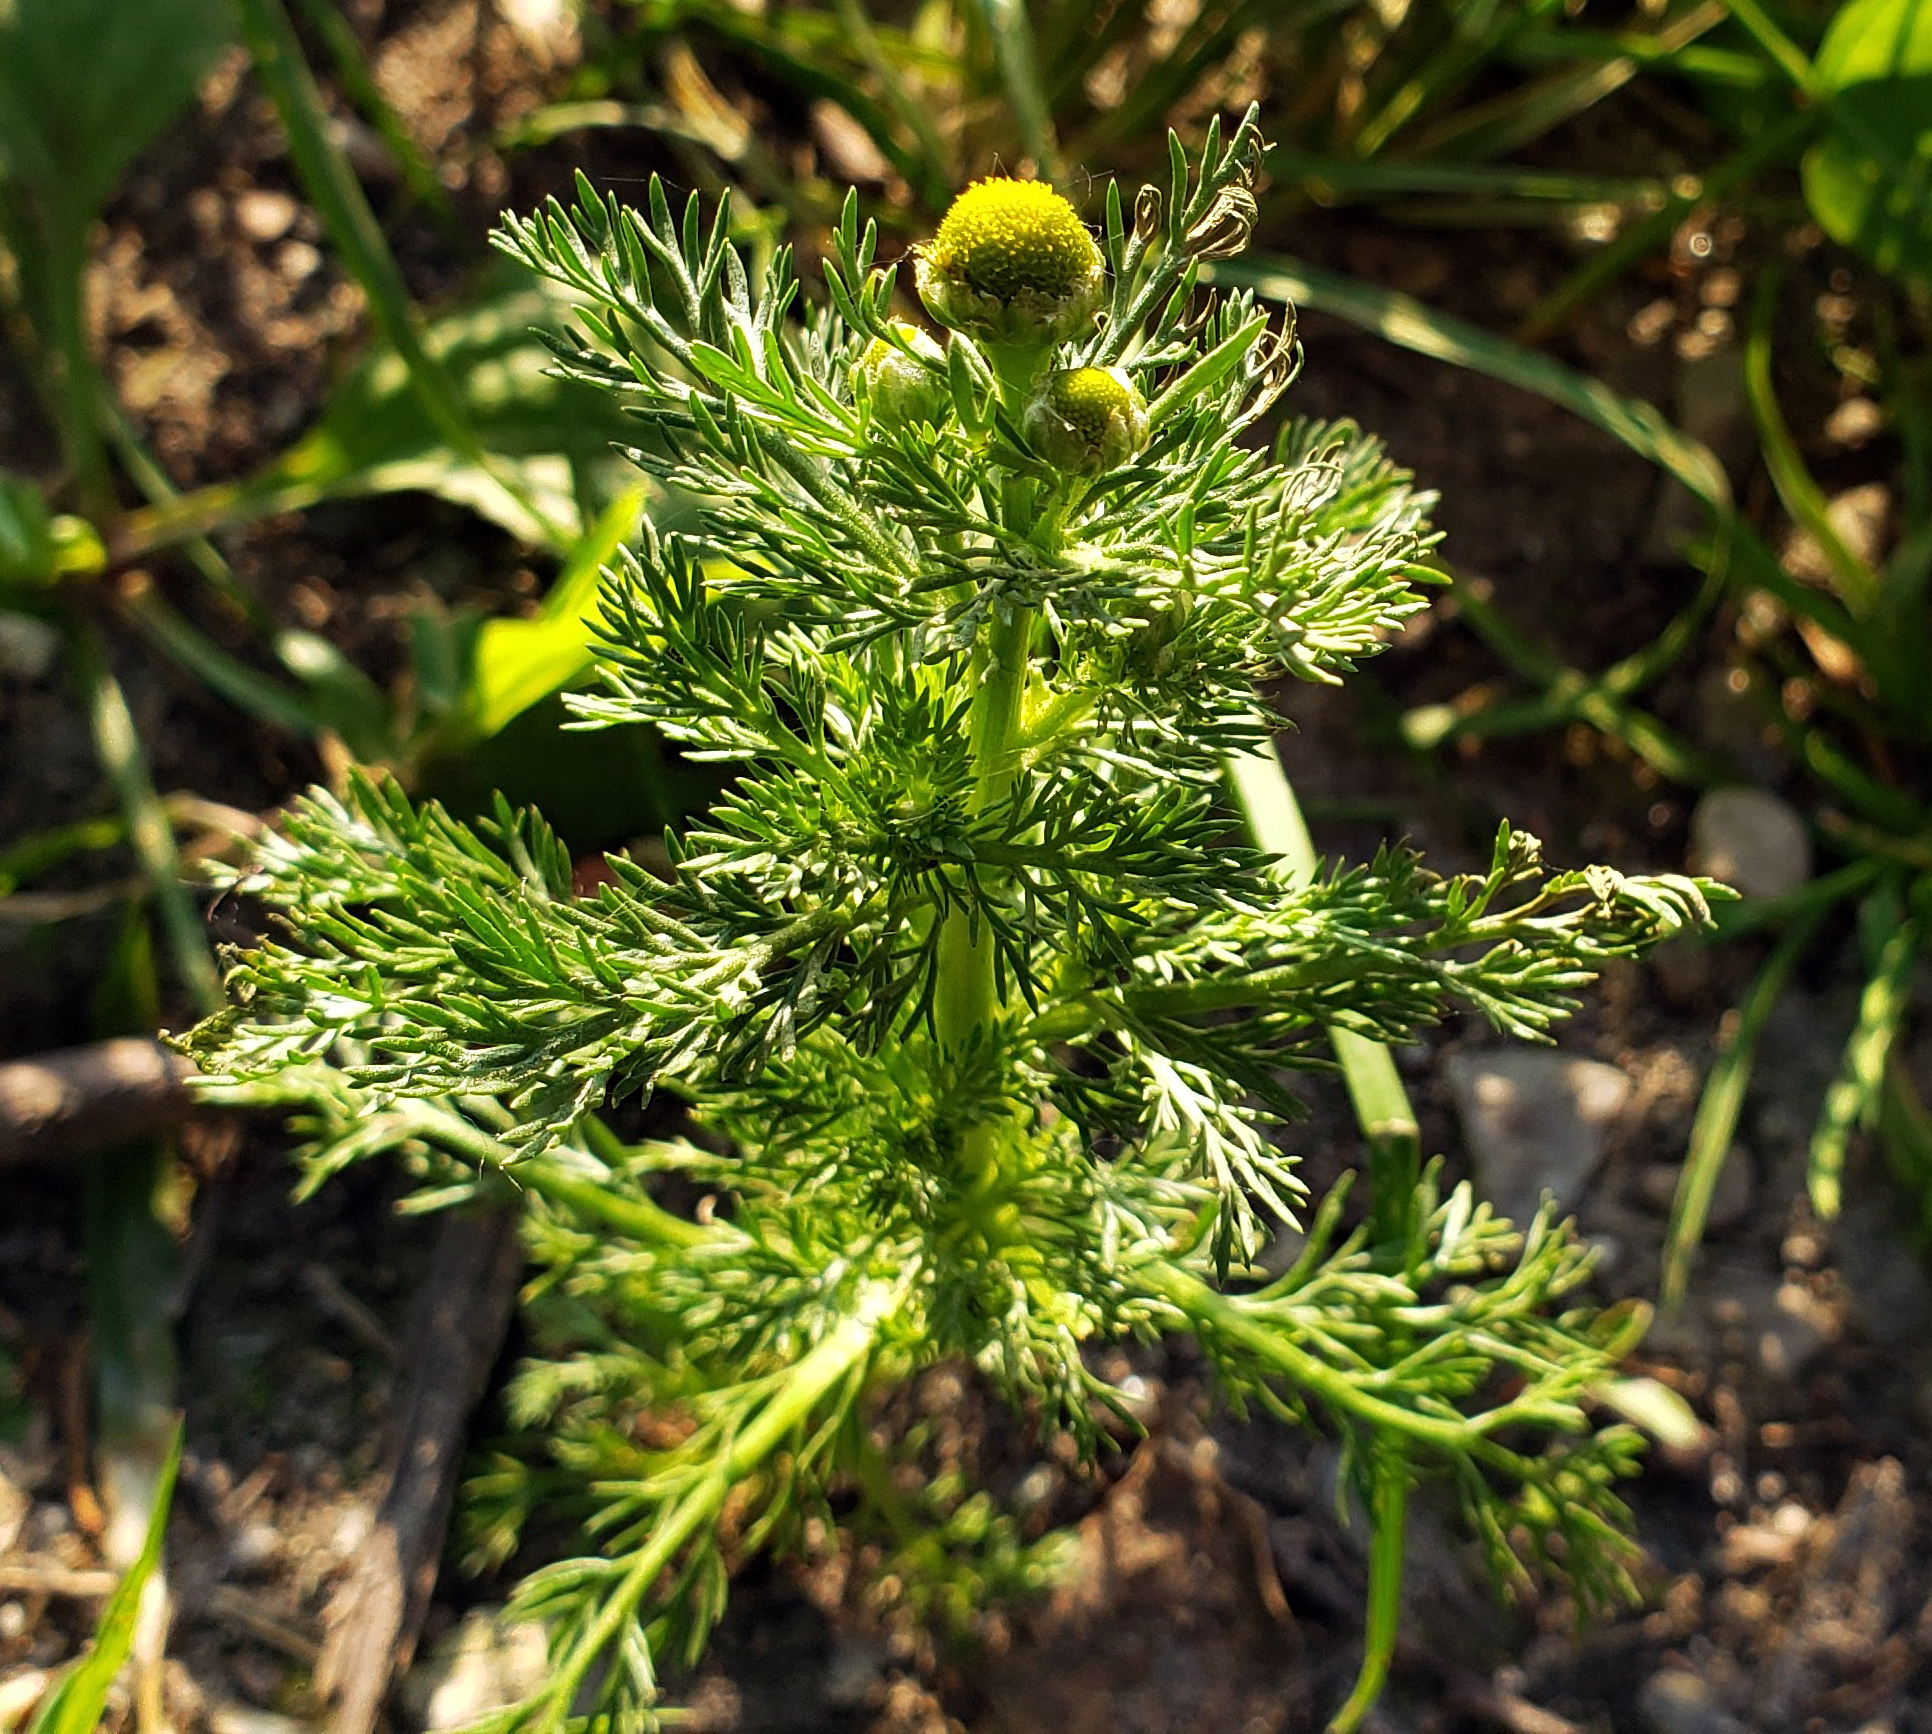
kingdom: Plantae
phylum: Tracheophyta
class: Magnoliopsida
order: Asterales
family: Asteraceae
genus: Matricaria
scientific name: Matricaria discoidea
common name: Disc mayweed
